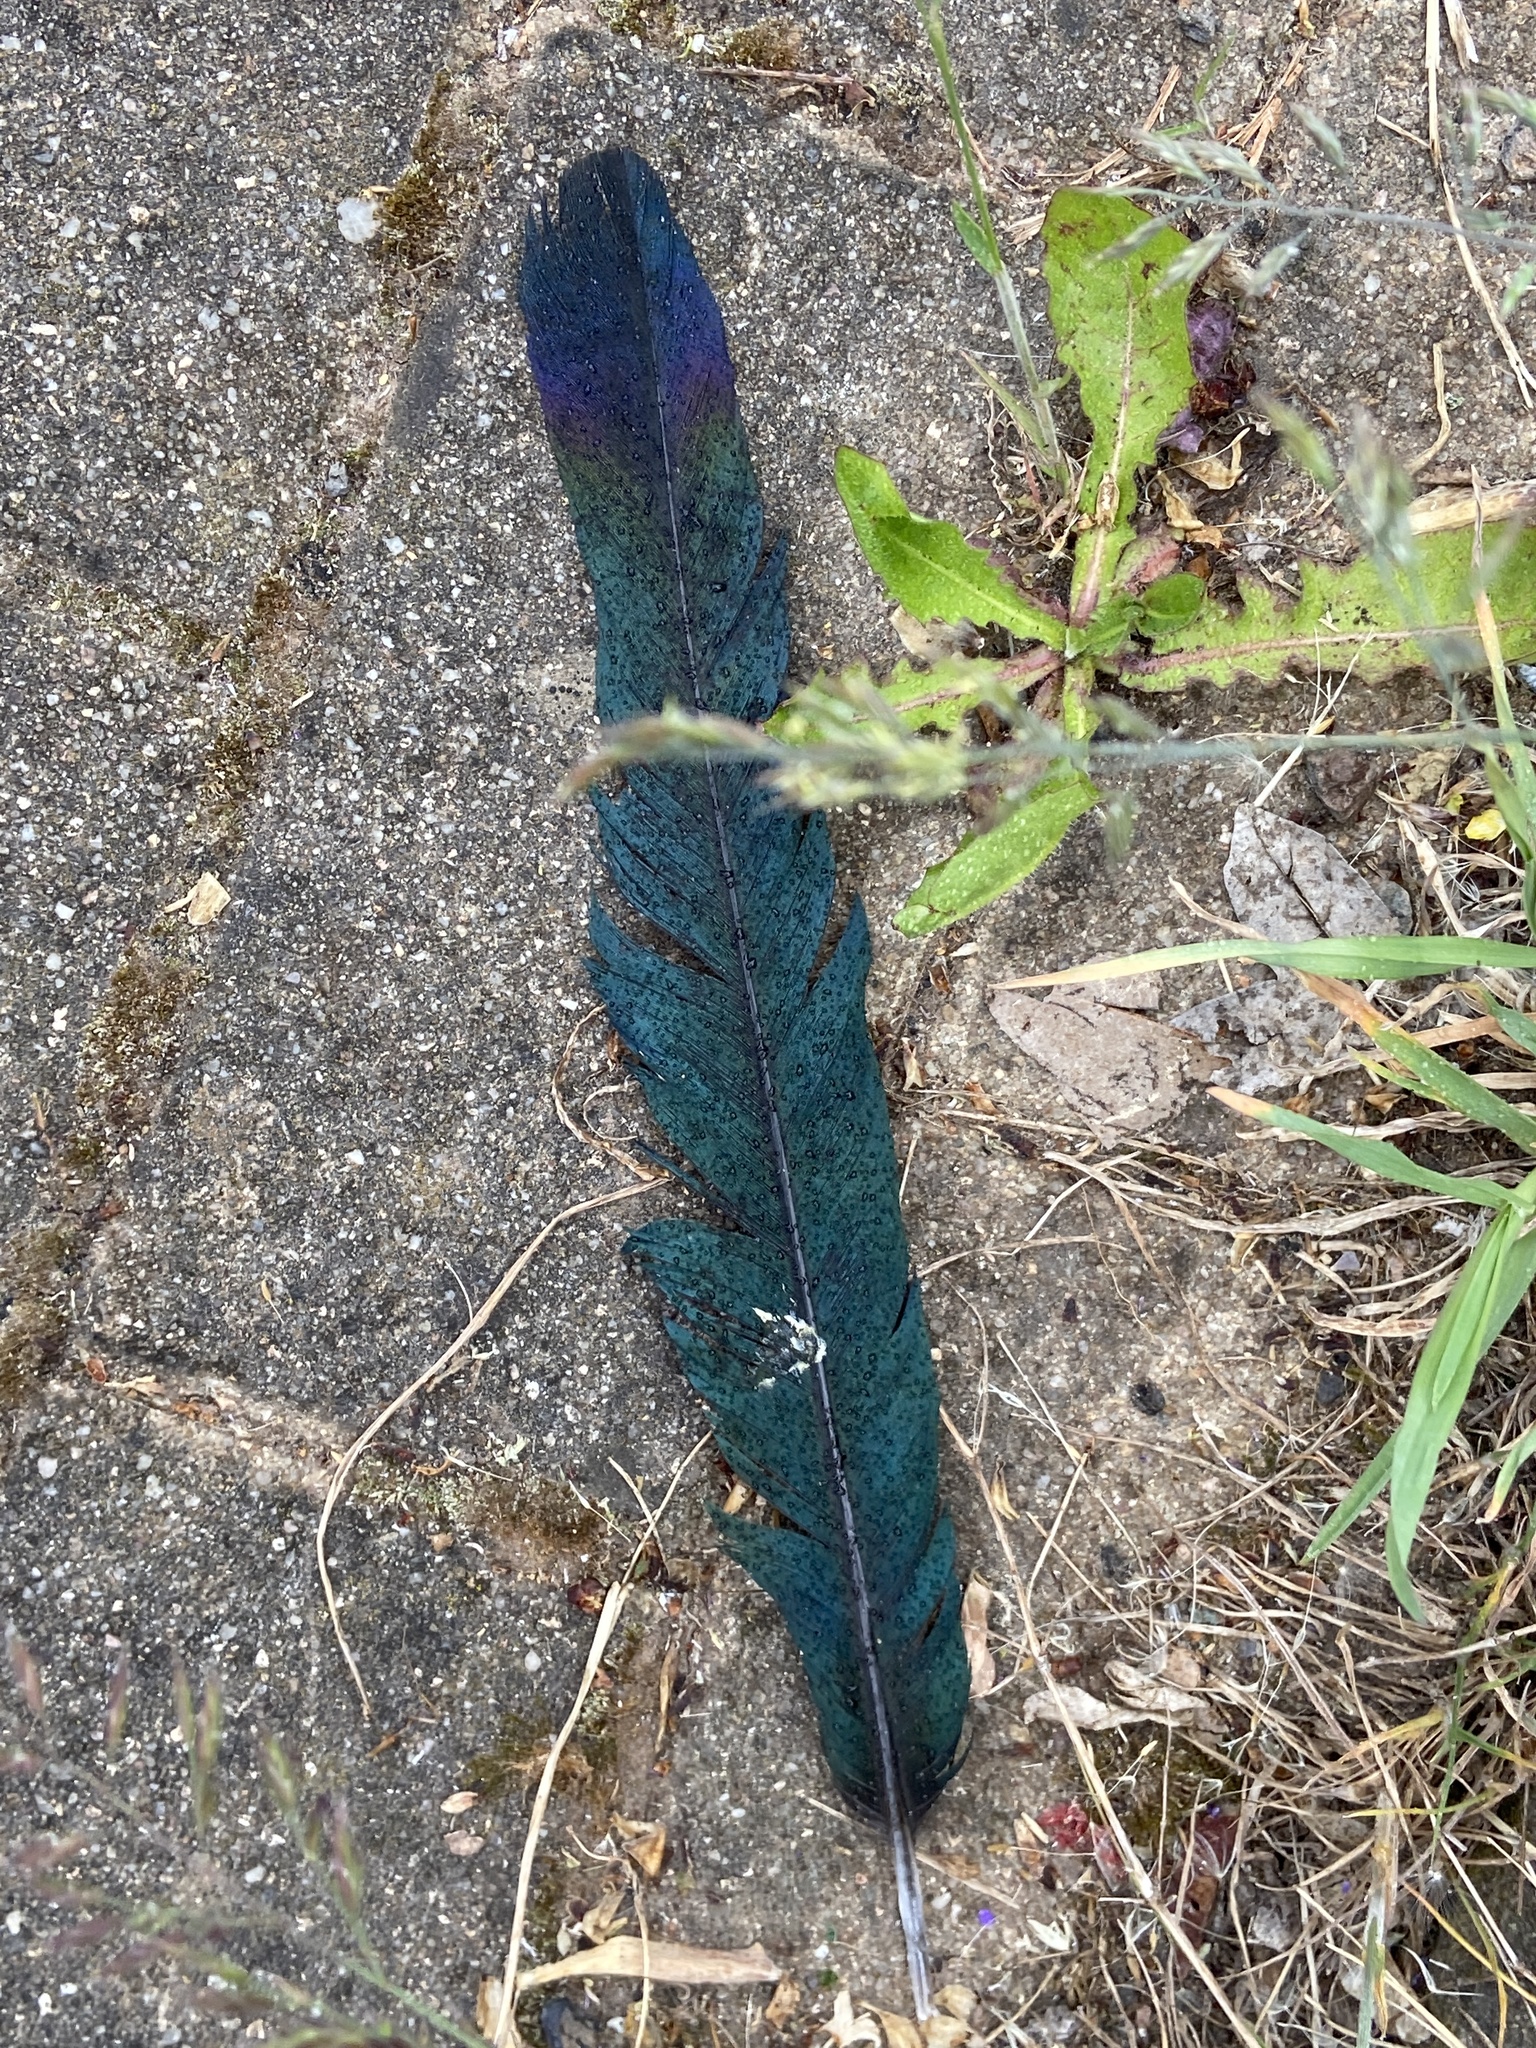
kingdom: Animalia
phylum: Chordata
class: Aves
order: Passeriformes
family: Corvidae
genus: Pica
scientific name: Pica pica
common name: Eurasian magpie
